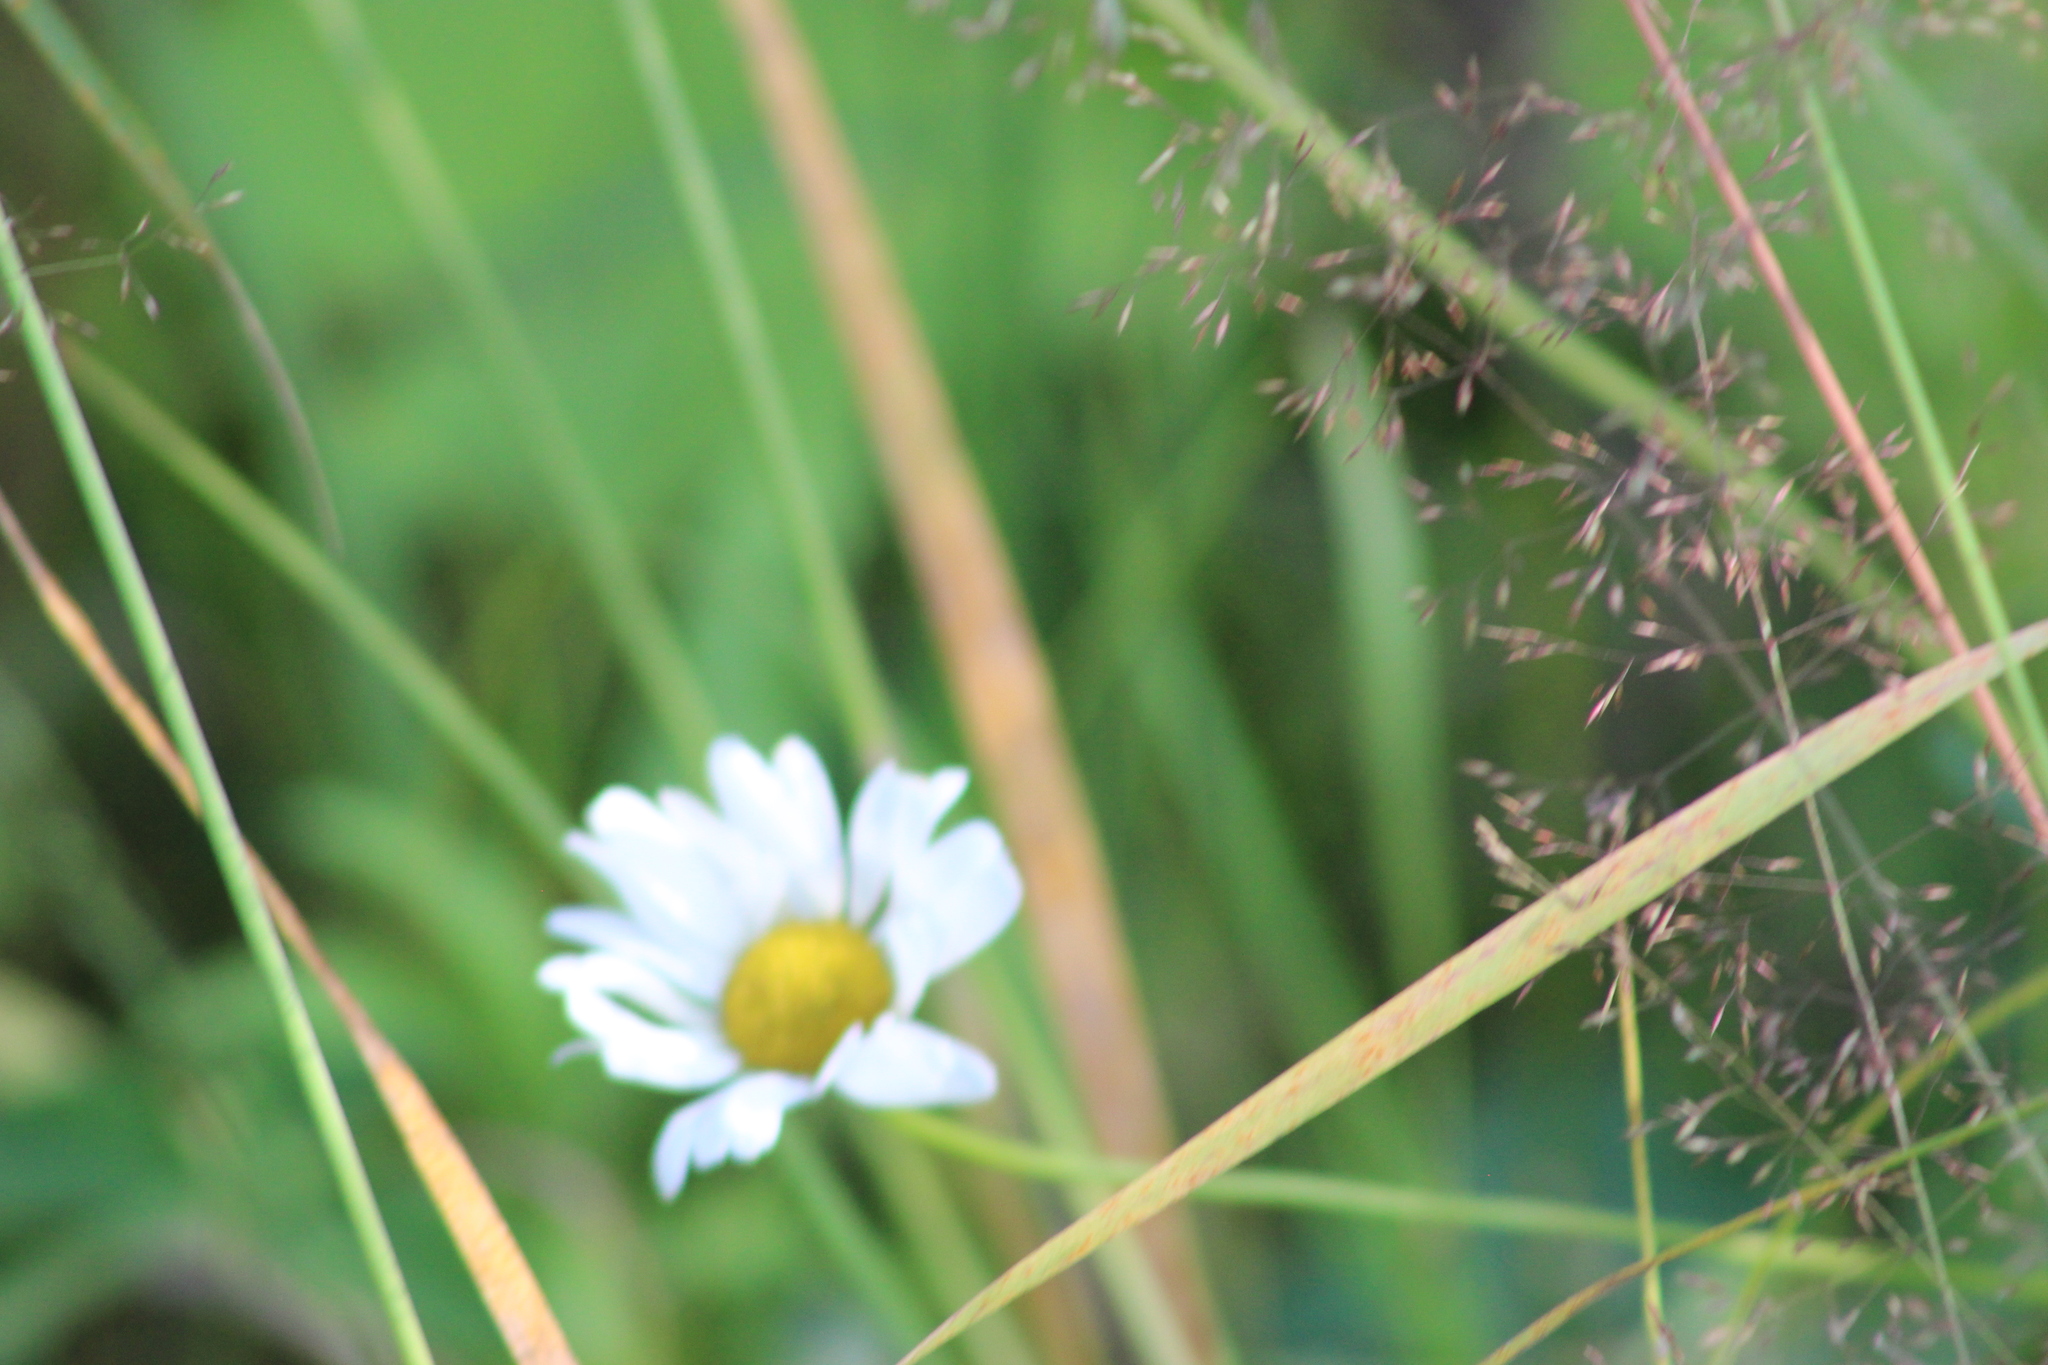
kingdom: Plantae
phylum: Tracheophyta
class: Magnoliopsida
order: Asterales
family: Asteraceae
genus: Leucanthemum
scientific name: Leucanthemum ircutianum
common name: Daisy
